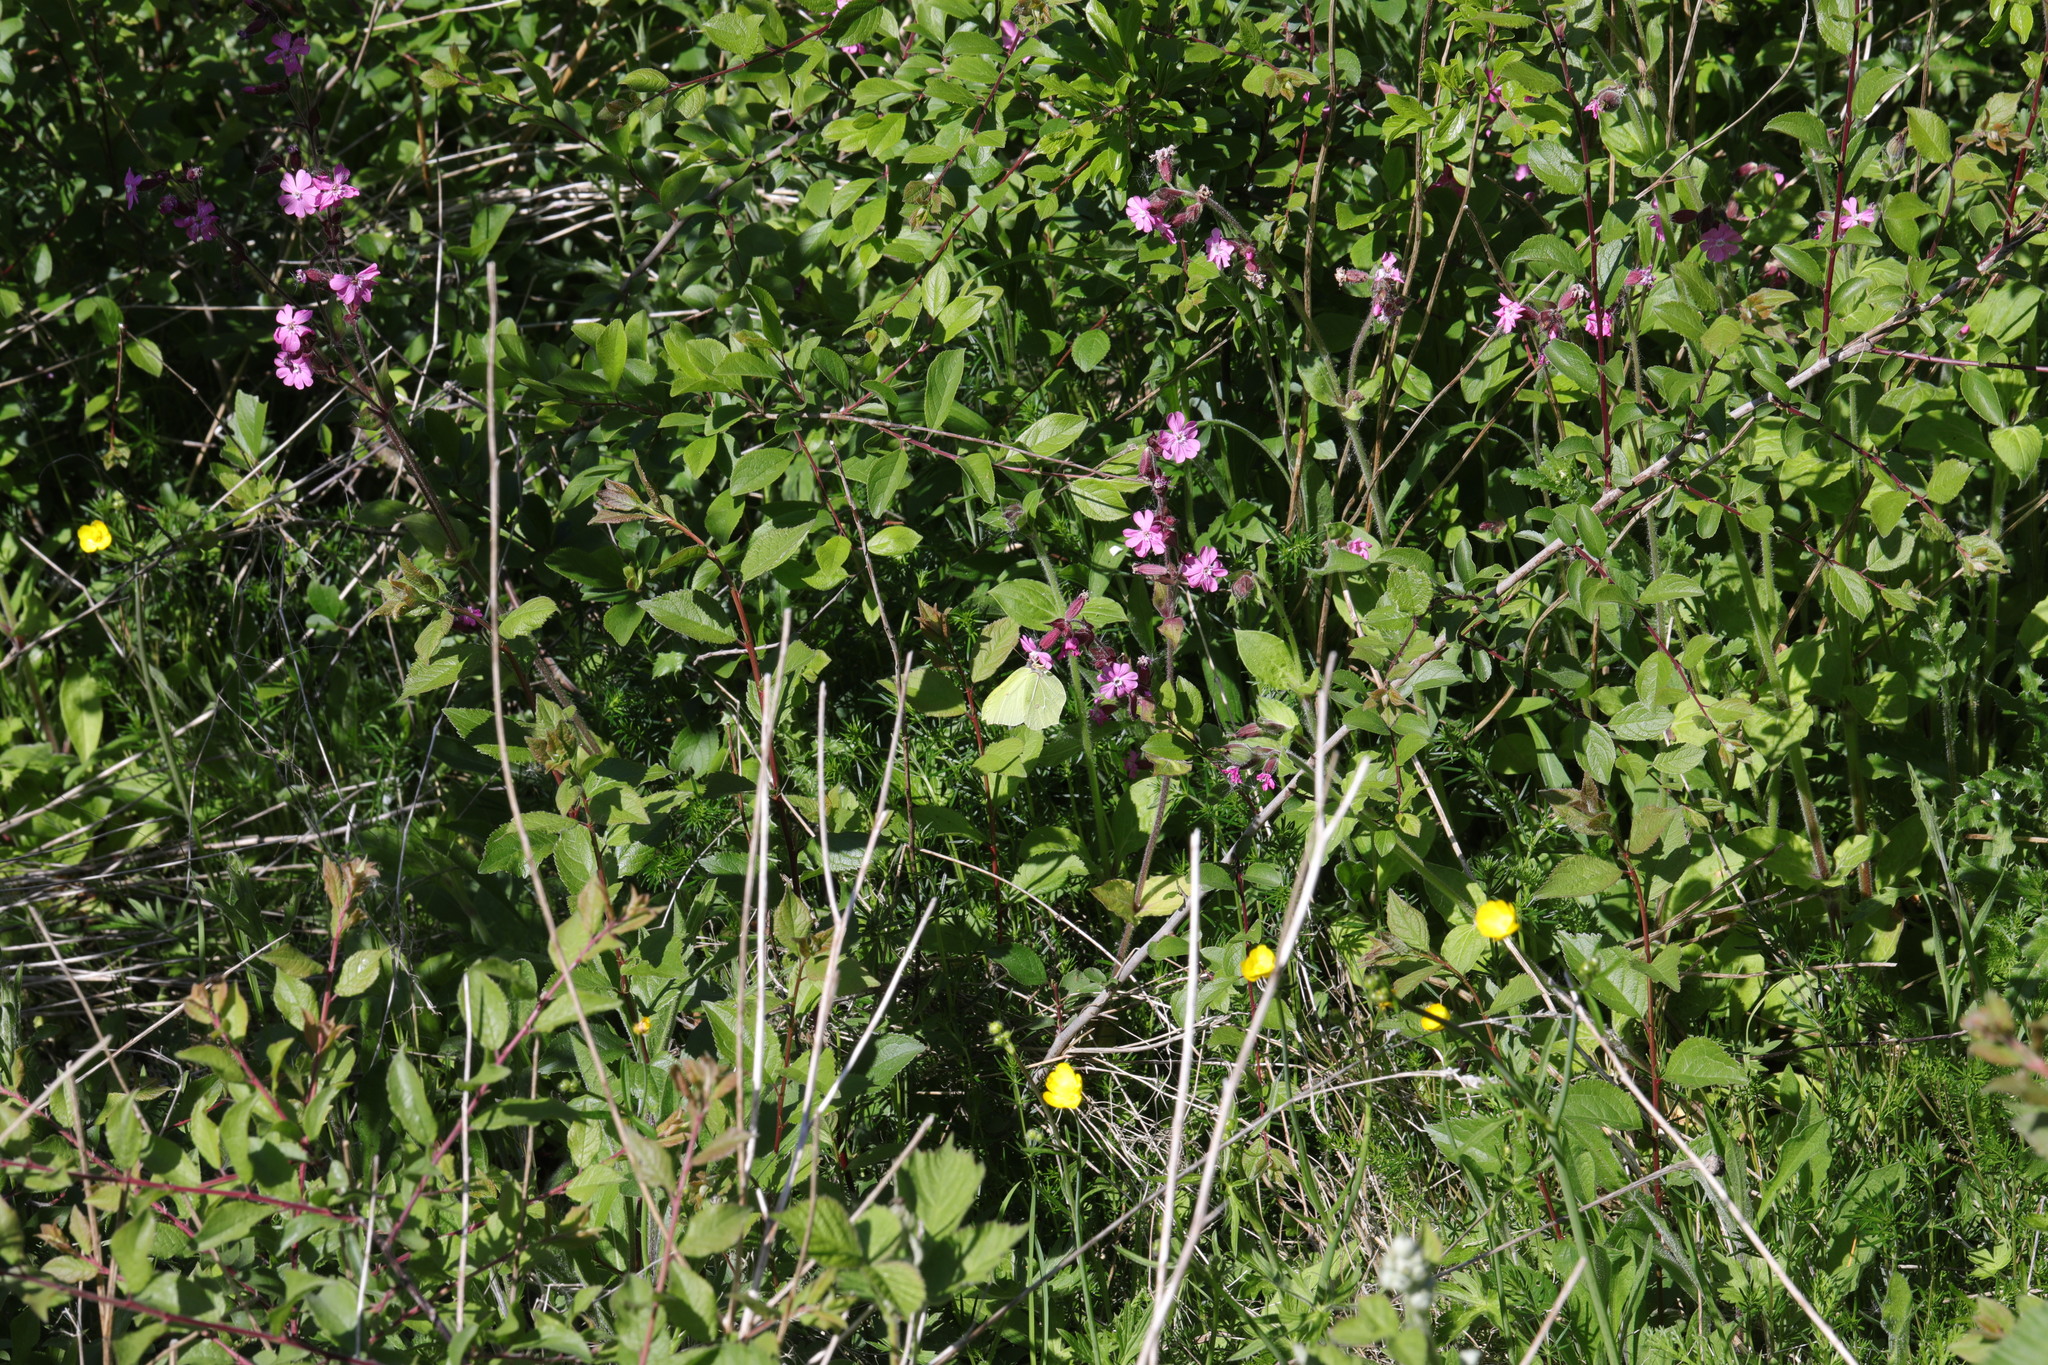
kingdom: Plantae
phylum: Tracheophyta
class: Magnoliopsida
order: Caryophyllales
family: Caryophyllaceae
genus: Silene
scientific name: Silene dioica
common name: Red campion
